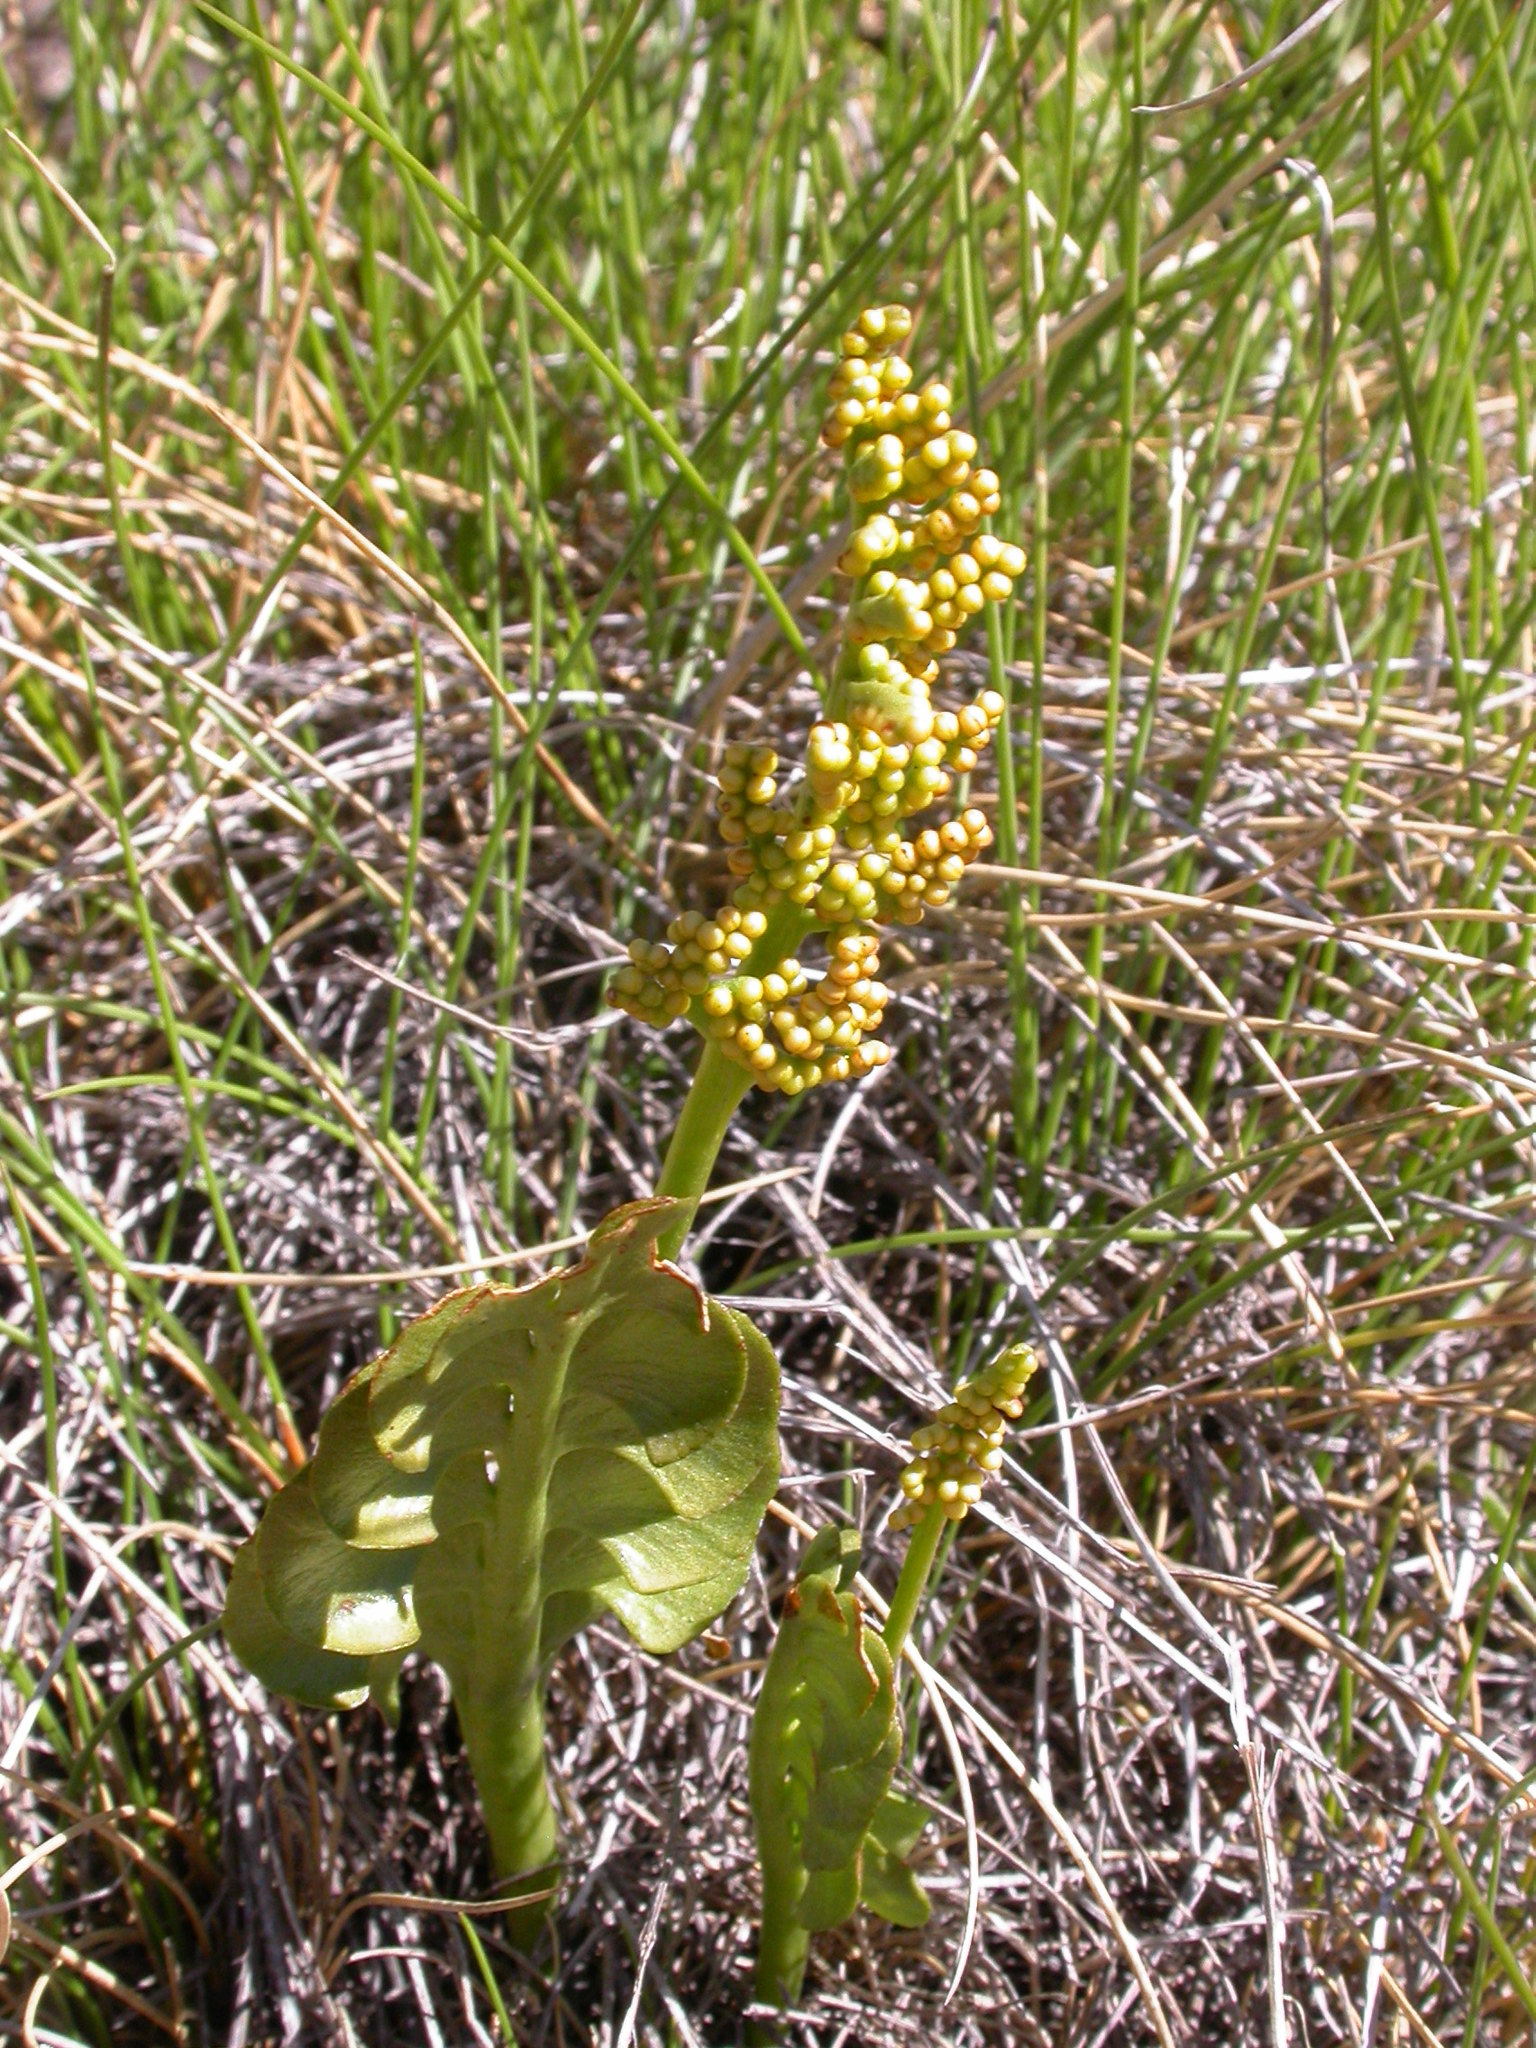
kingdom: Plantae
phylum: Tracheophyta
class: Polypodiopsida
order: Ophioglossales
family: Ophioglossaceae
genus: Botrychium
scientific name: Botrychium lunaria
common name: Moonwort
